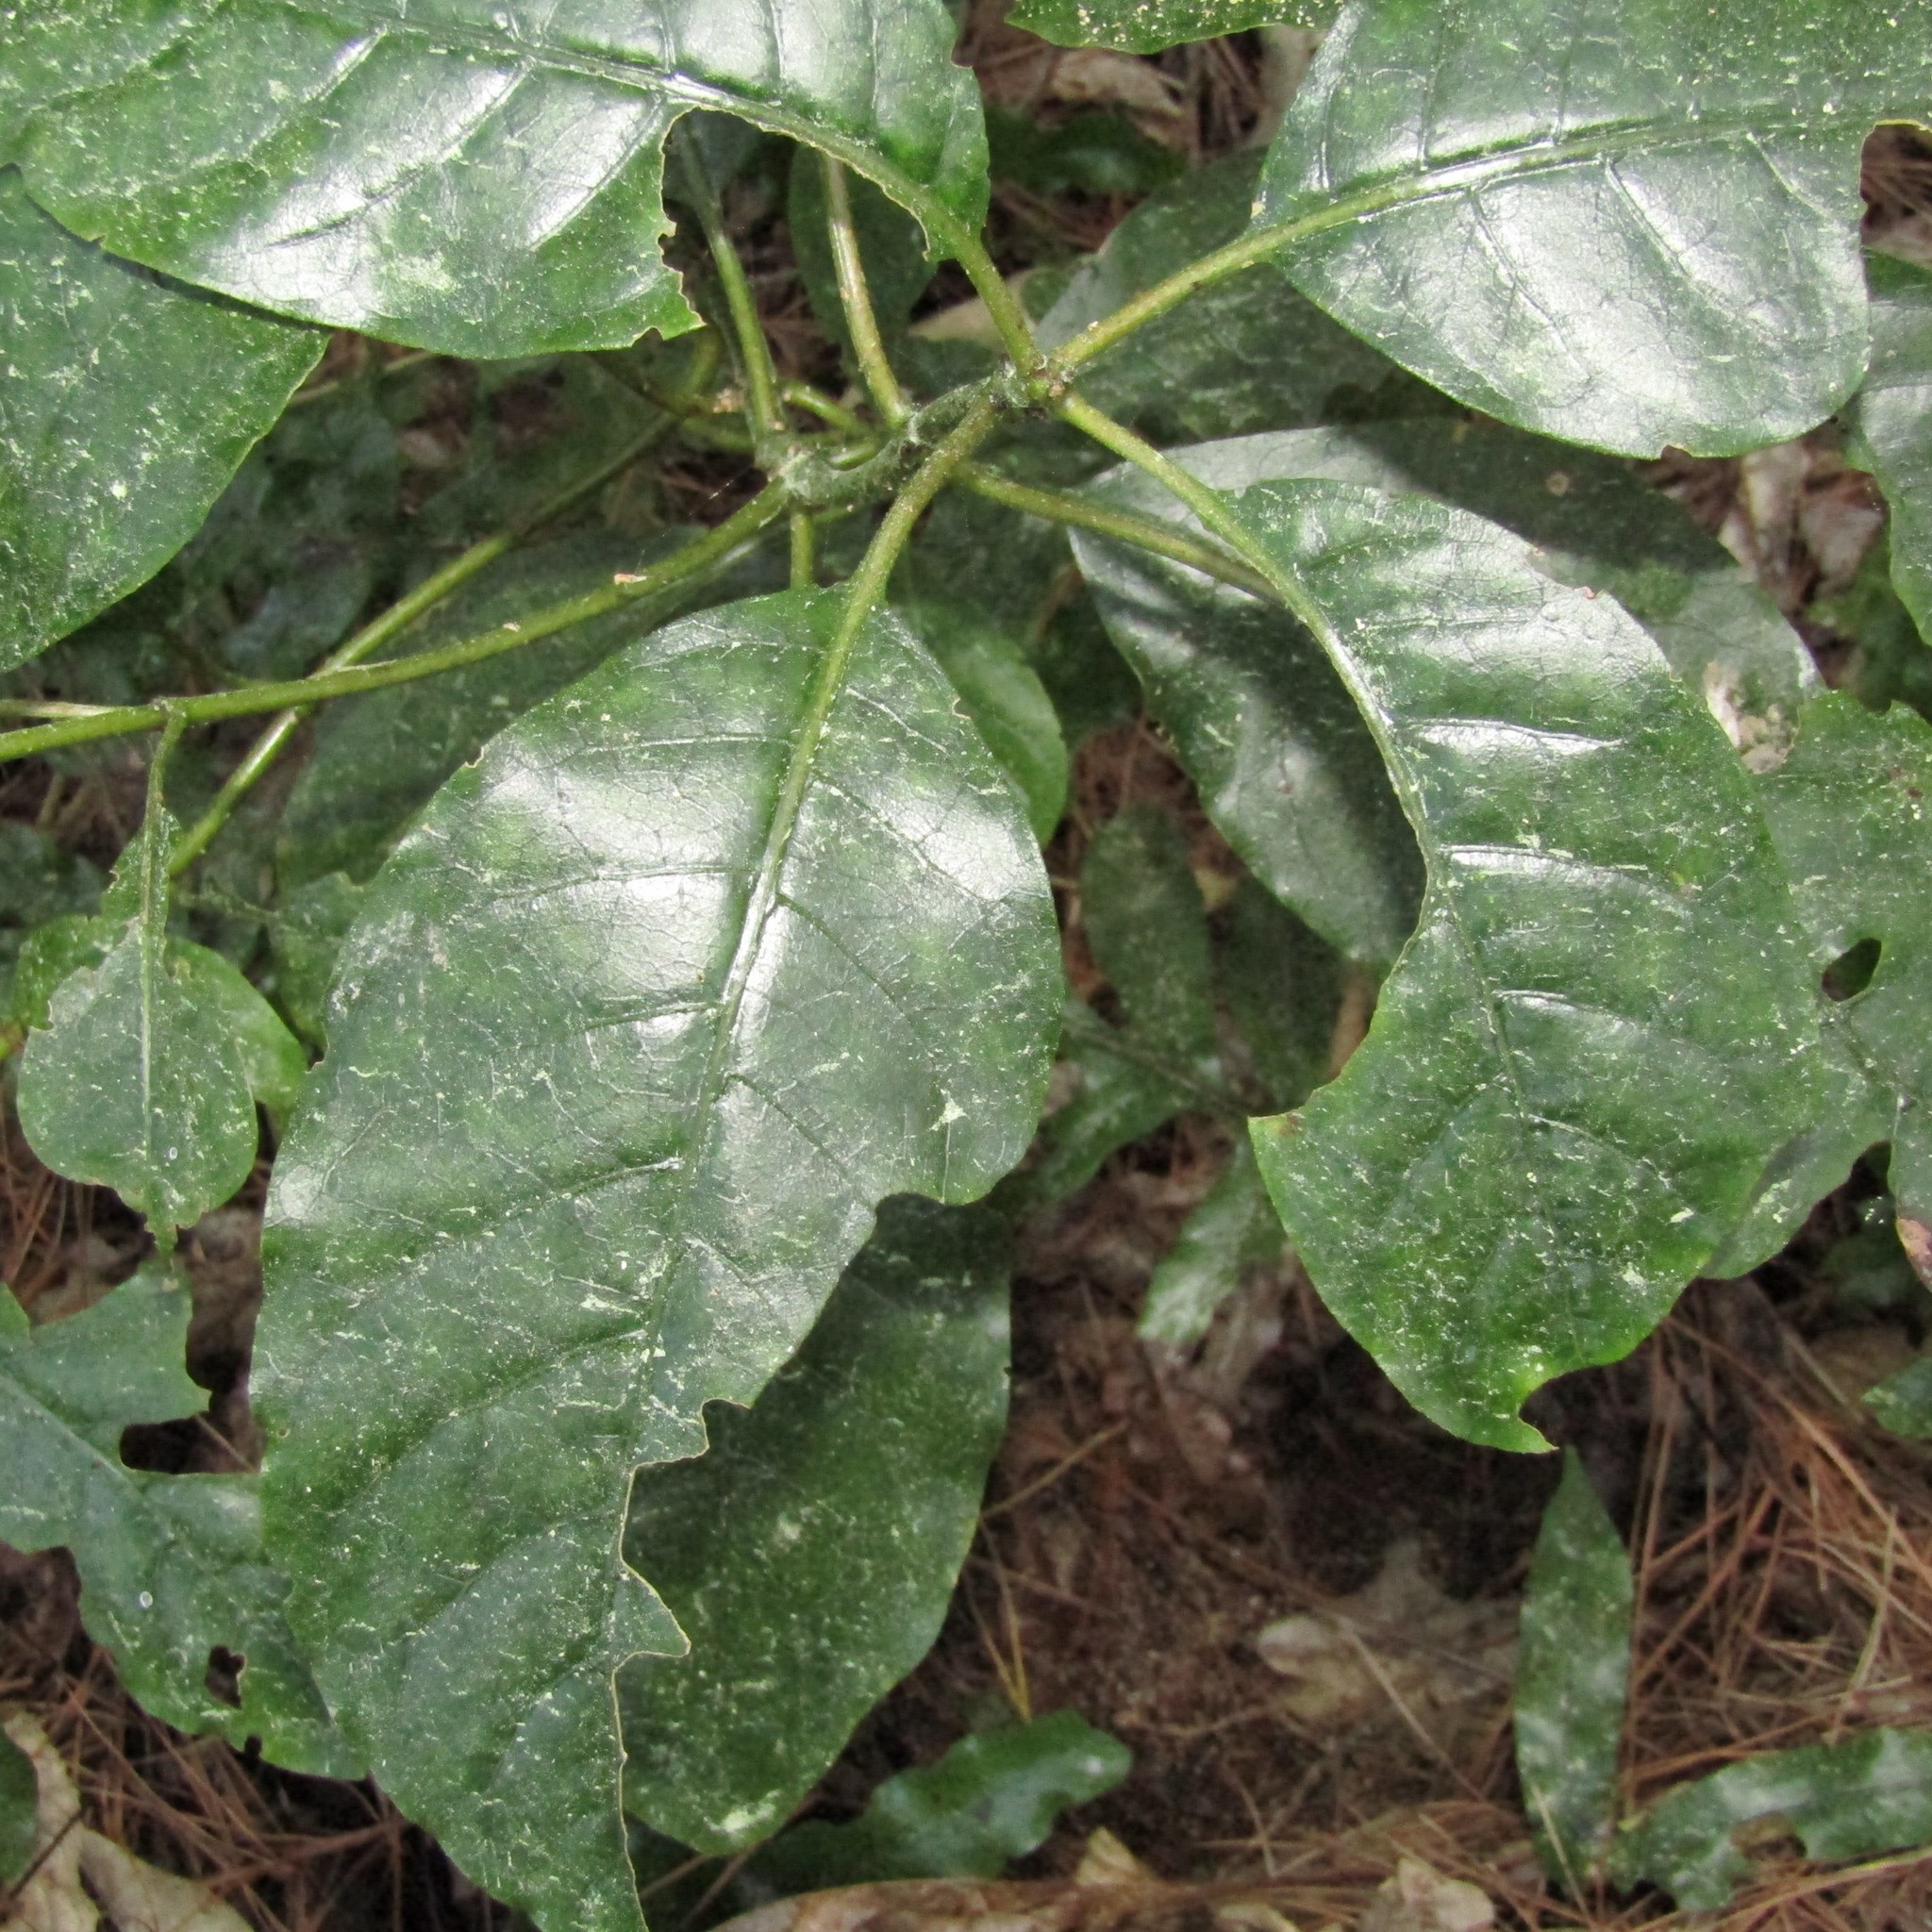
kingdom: Plantae
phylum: Tracheophyta
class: Magnoliopsida
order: Gentianales
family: Rubiaceae
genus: Coprosma
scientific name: Coprosma autumnalis
